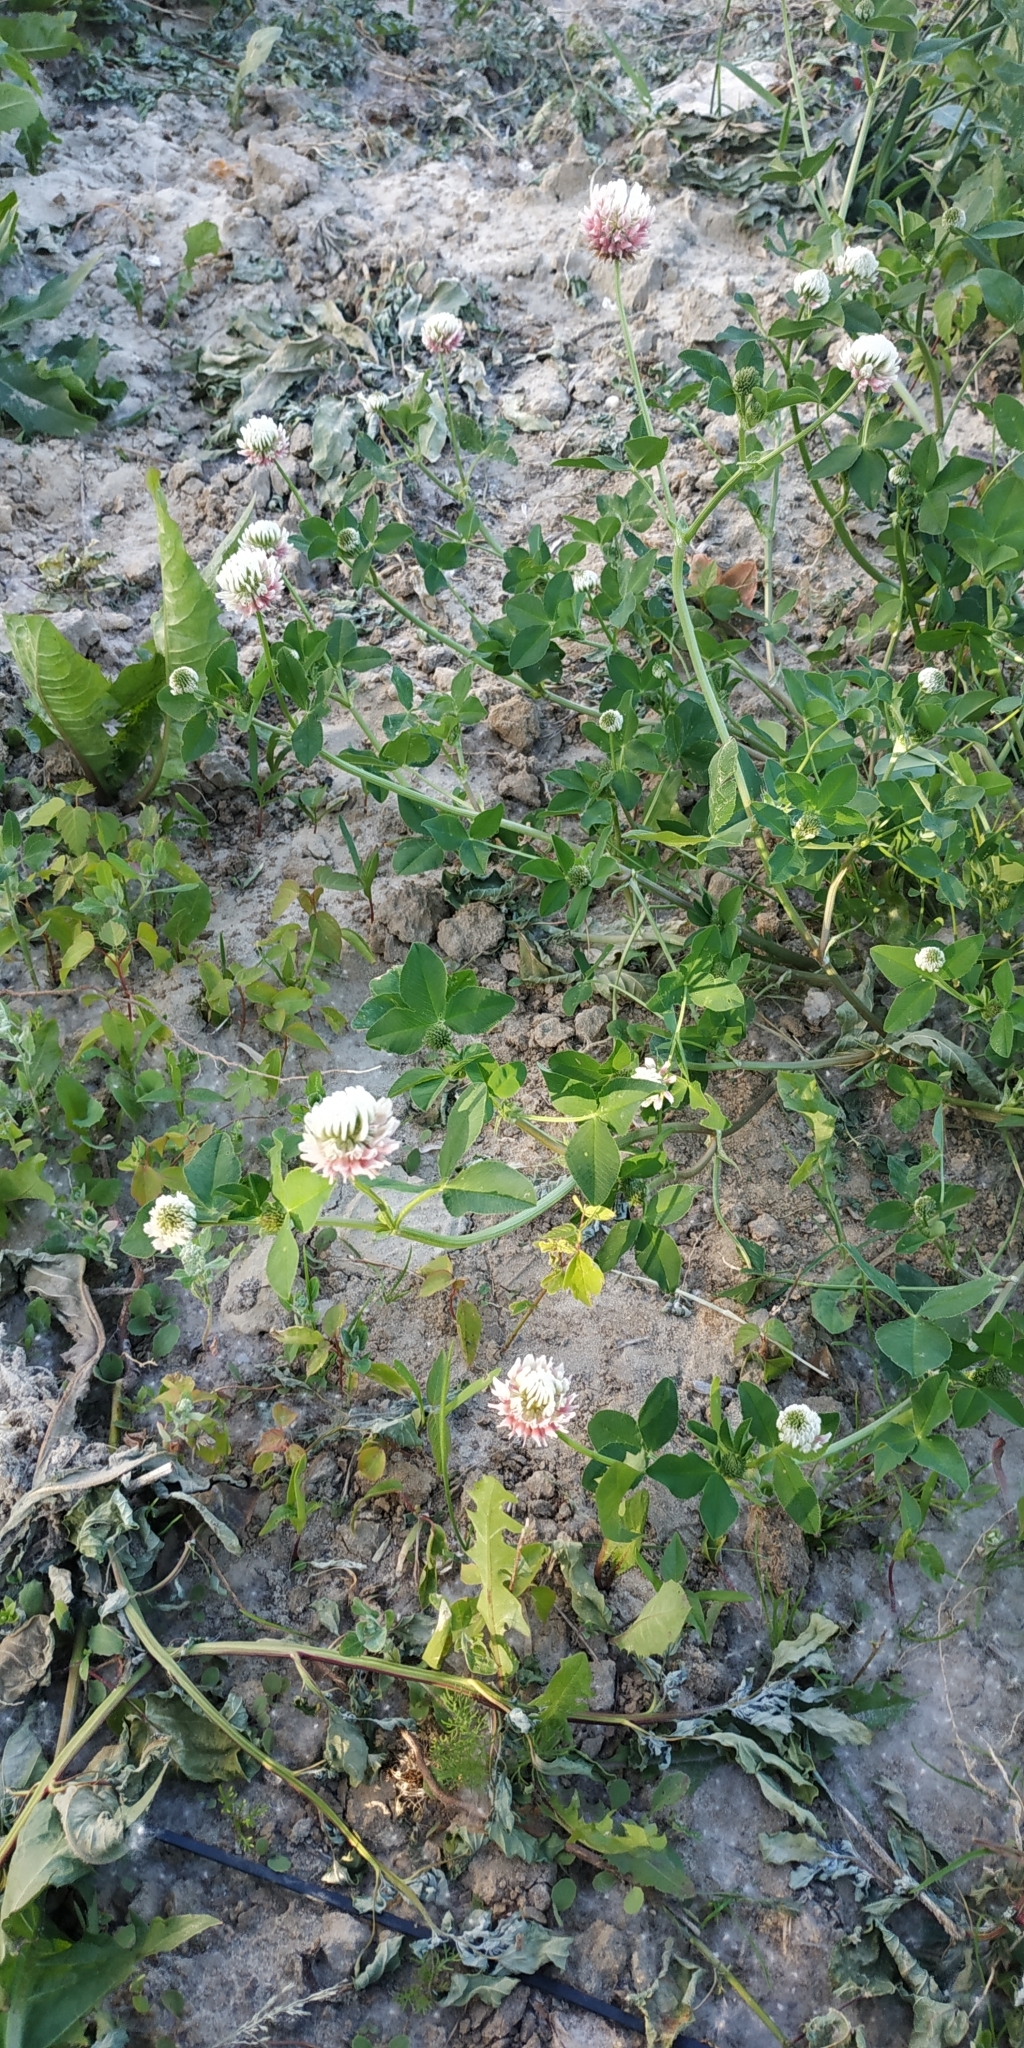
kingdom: Plantae
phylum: Tracheophyta
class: Magnoliopsida
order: Fabales
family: Fabaceae
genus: Trifolium
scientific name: Trifolium hybridum
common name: Alsike clover
